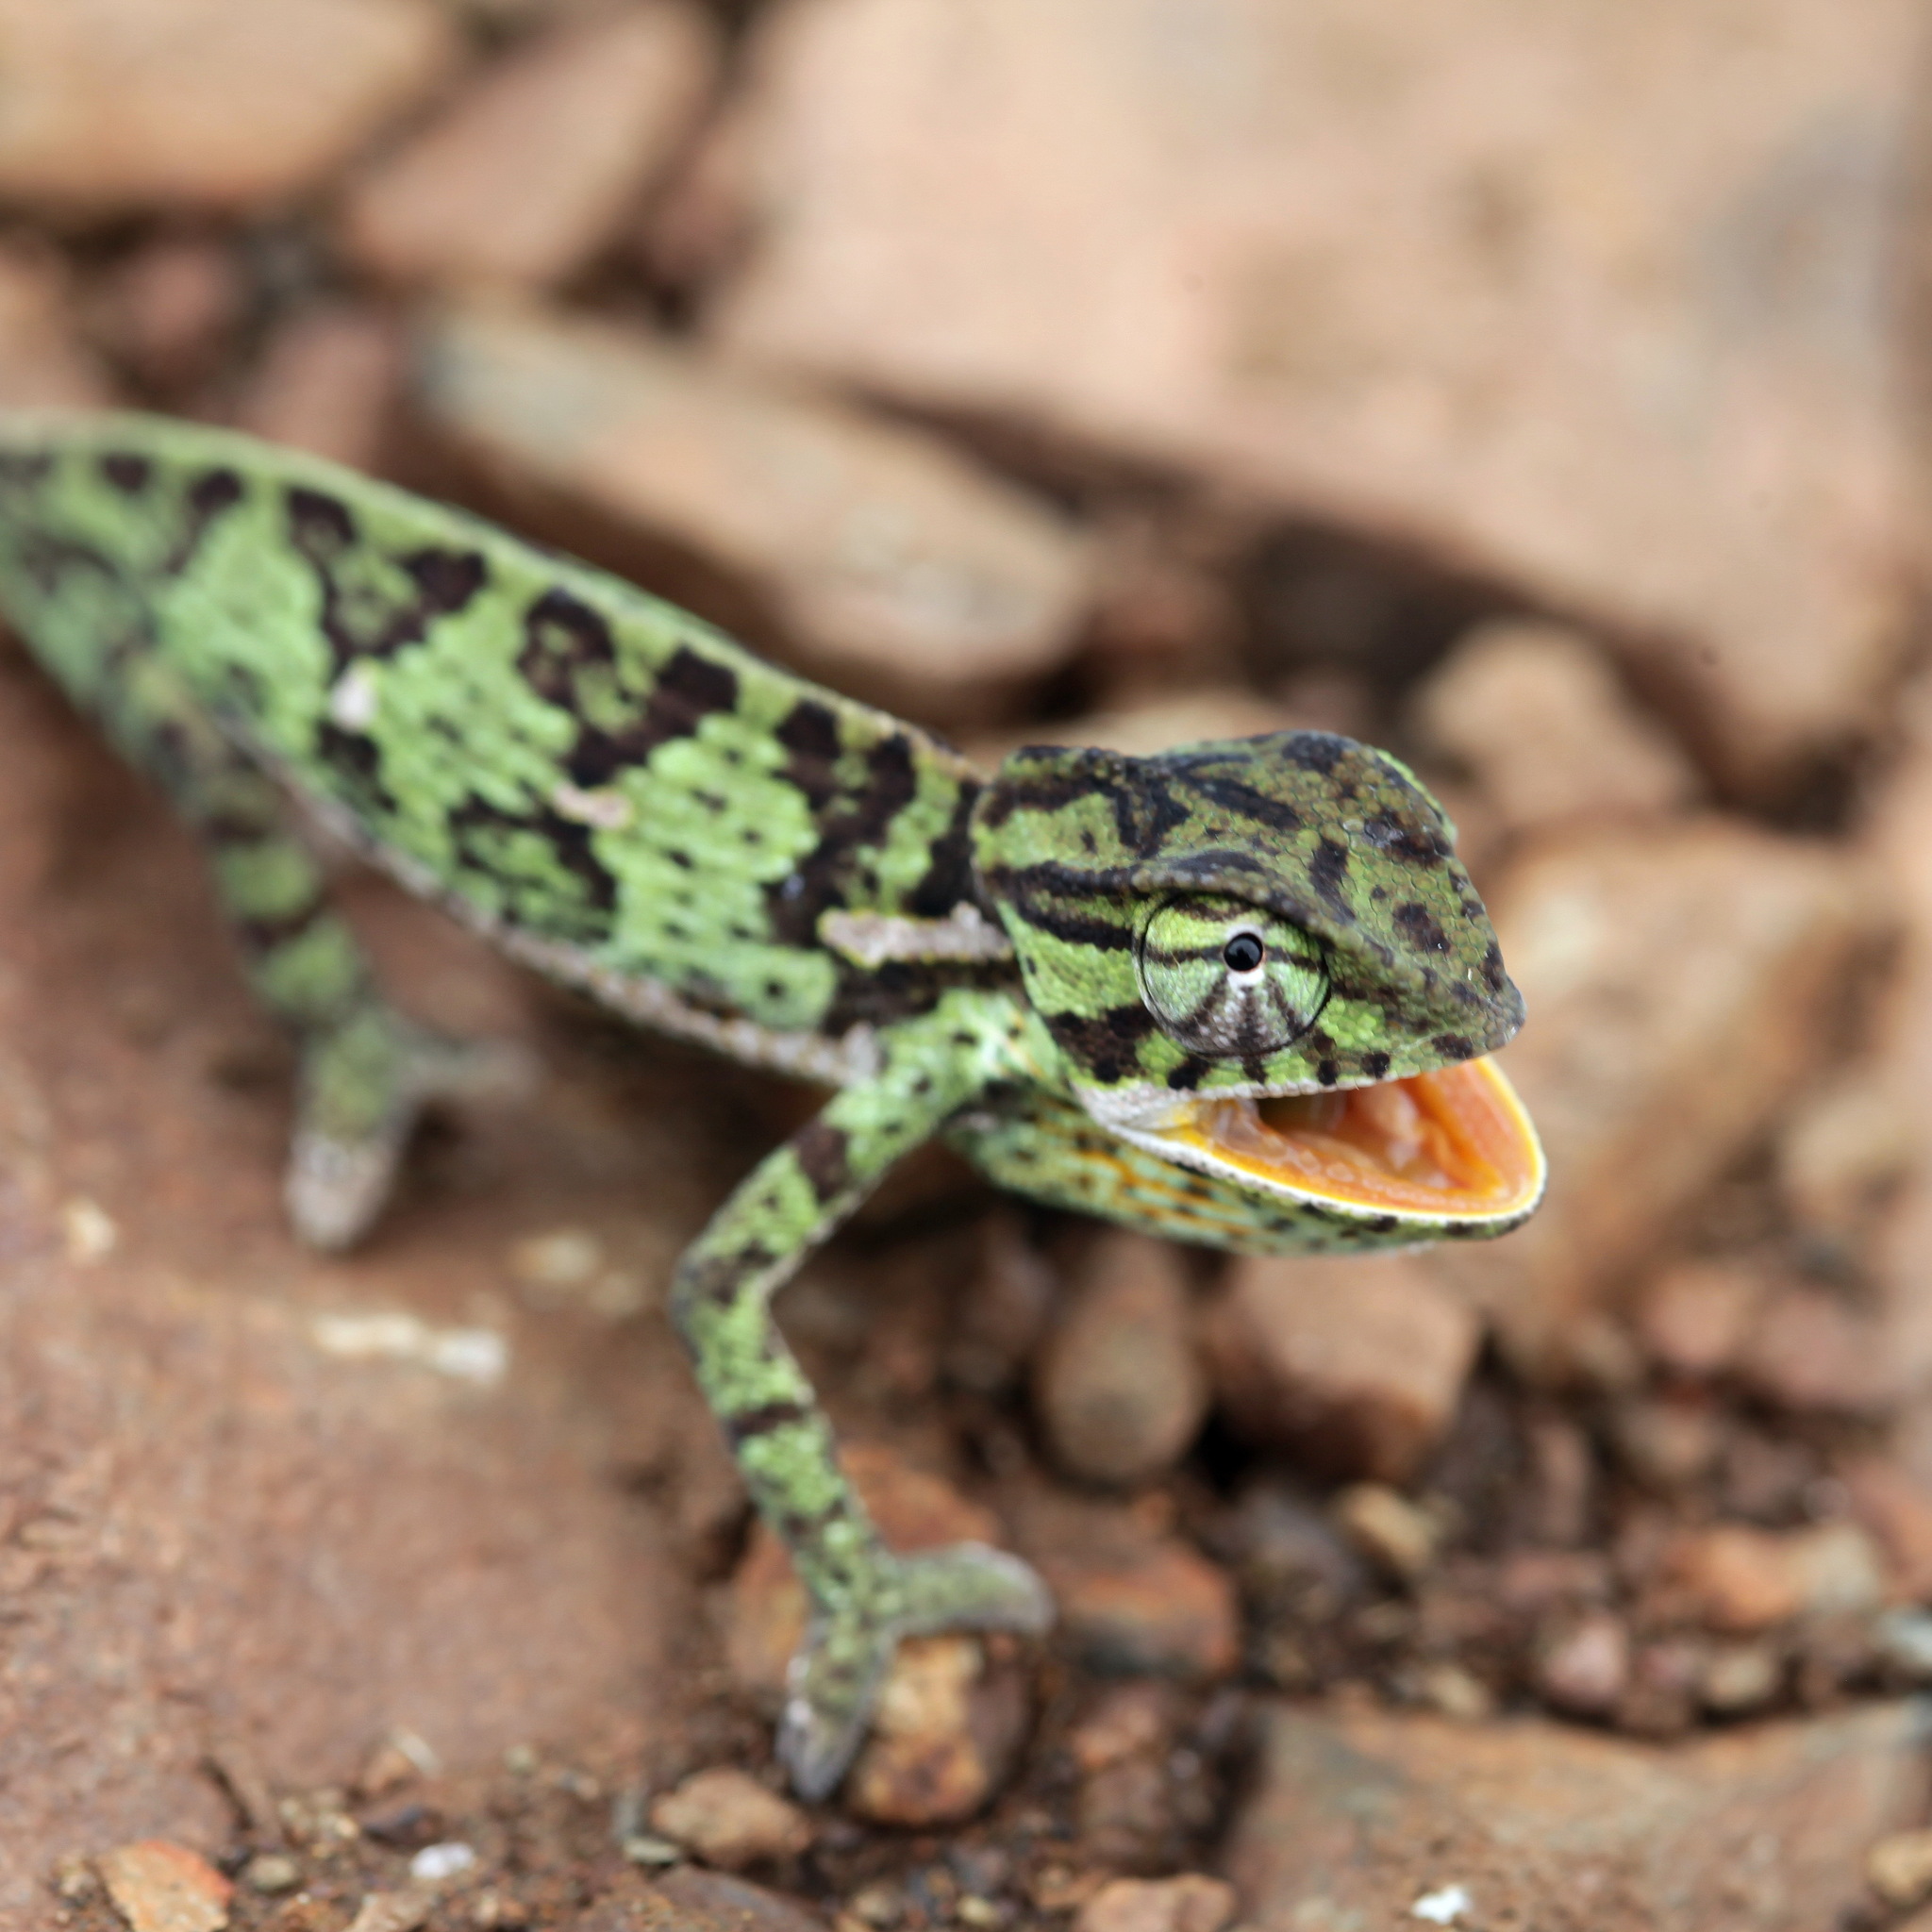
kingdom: Animalia
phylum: Chordata
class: Squamata
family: Chamaeleonidae
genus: Chamaeleo
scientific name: Chamaeleo dilepis
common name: Flapneck chameleon
